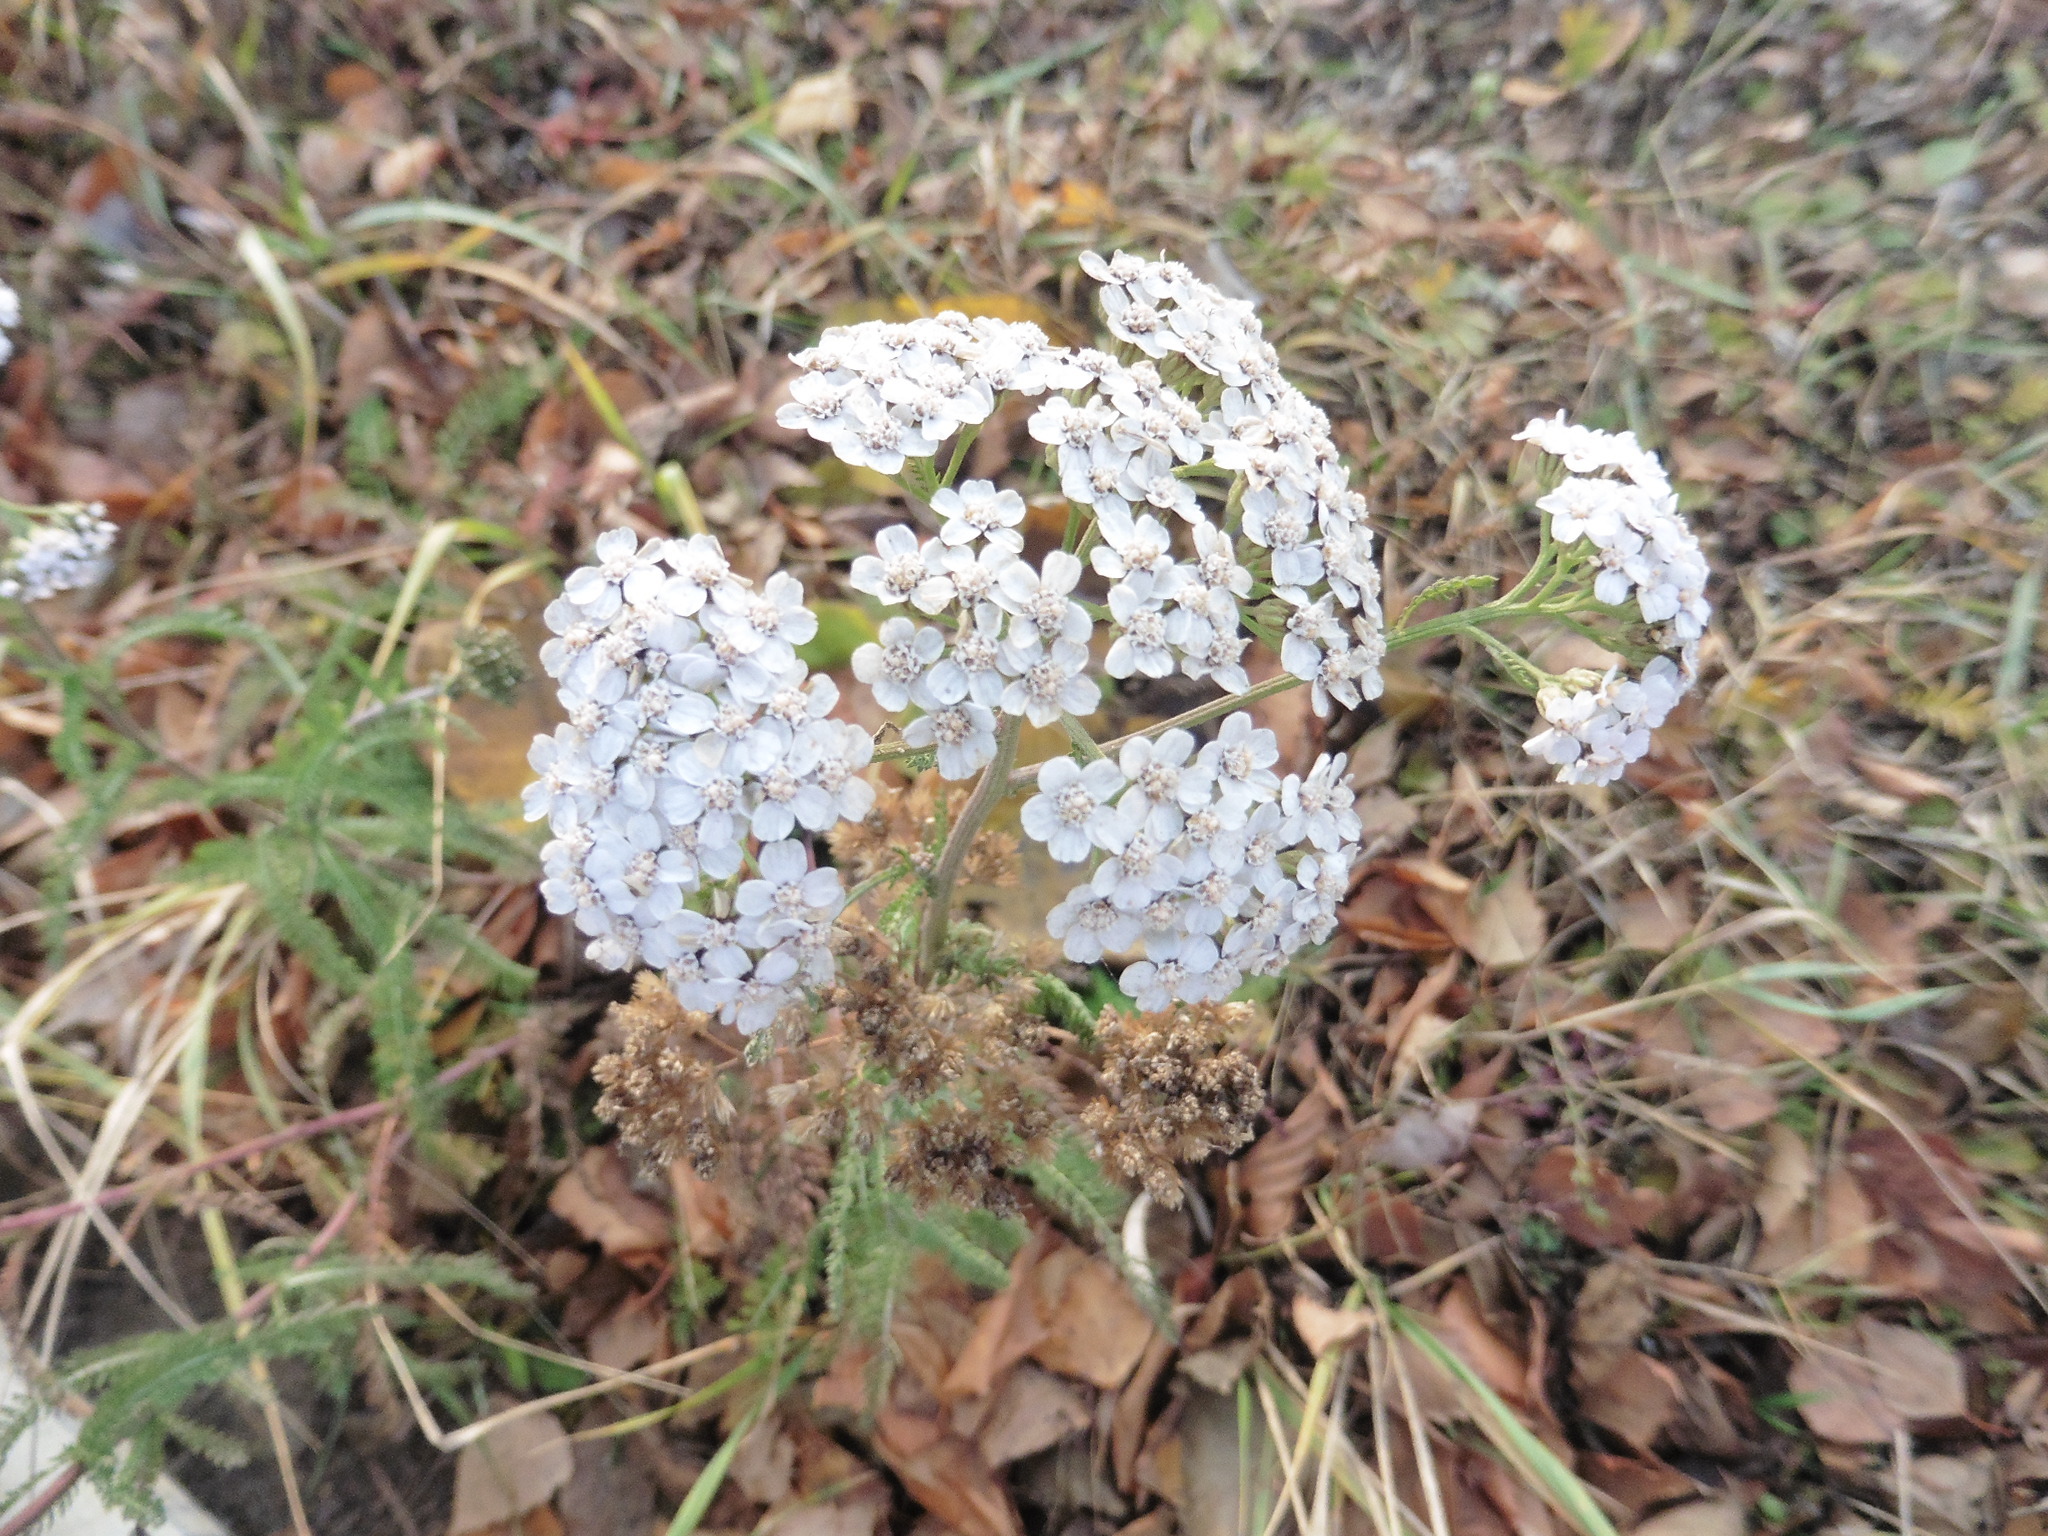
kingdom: Plantae
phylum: Tracheophyta
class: Magnoliopsida
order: Asterales
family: Asteraceae
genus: Achillea
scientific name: Achillea millefolium
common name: Yarrow
